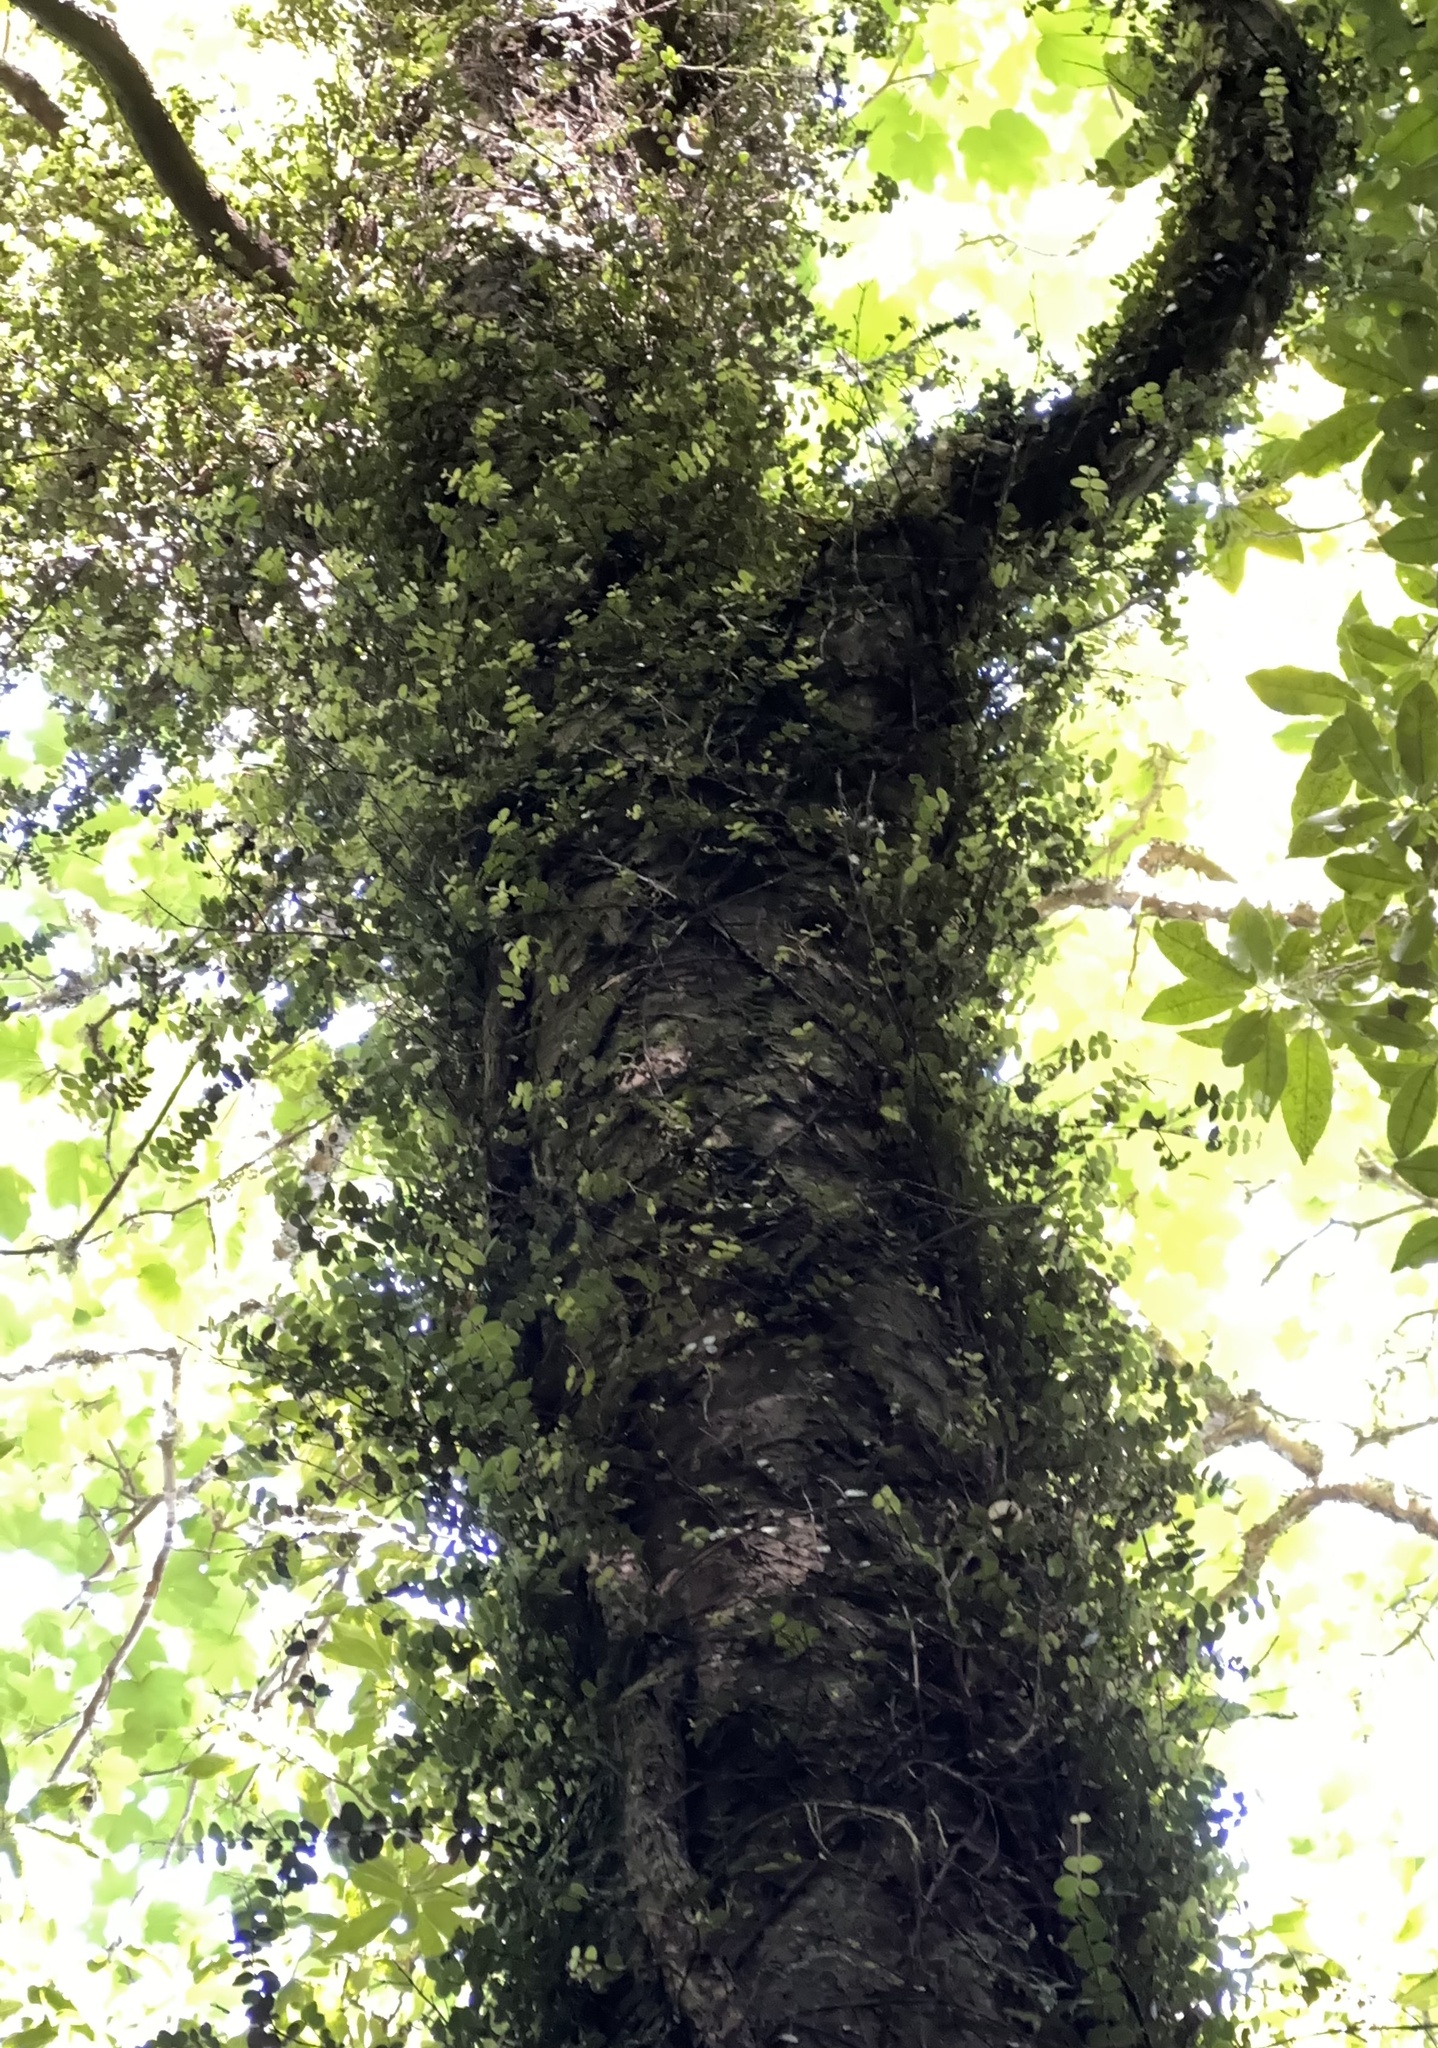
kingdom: Plantae
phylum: Tracheophyta
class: Magnoliopsida
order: Myrtales
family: Myrtaceae
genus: Metrosideros
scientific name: Metrosideros perforata
